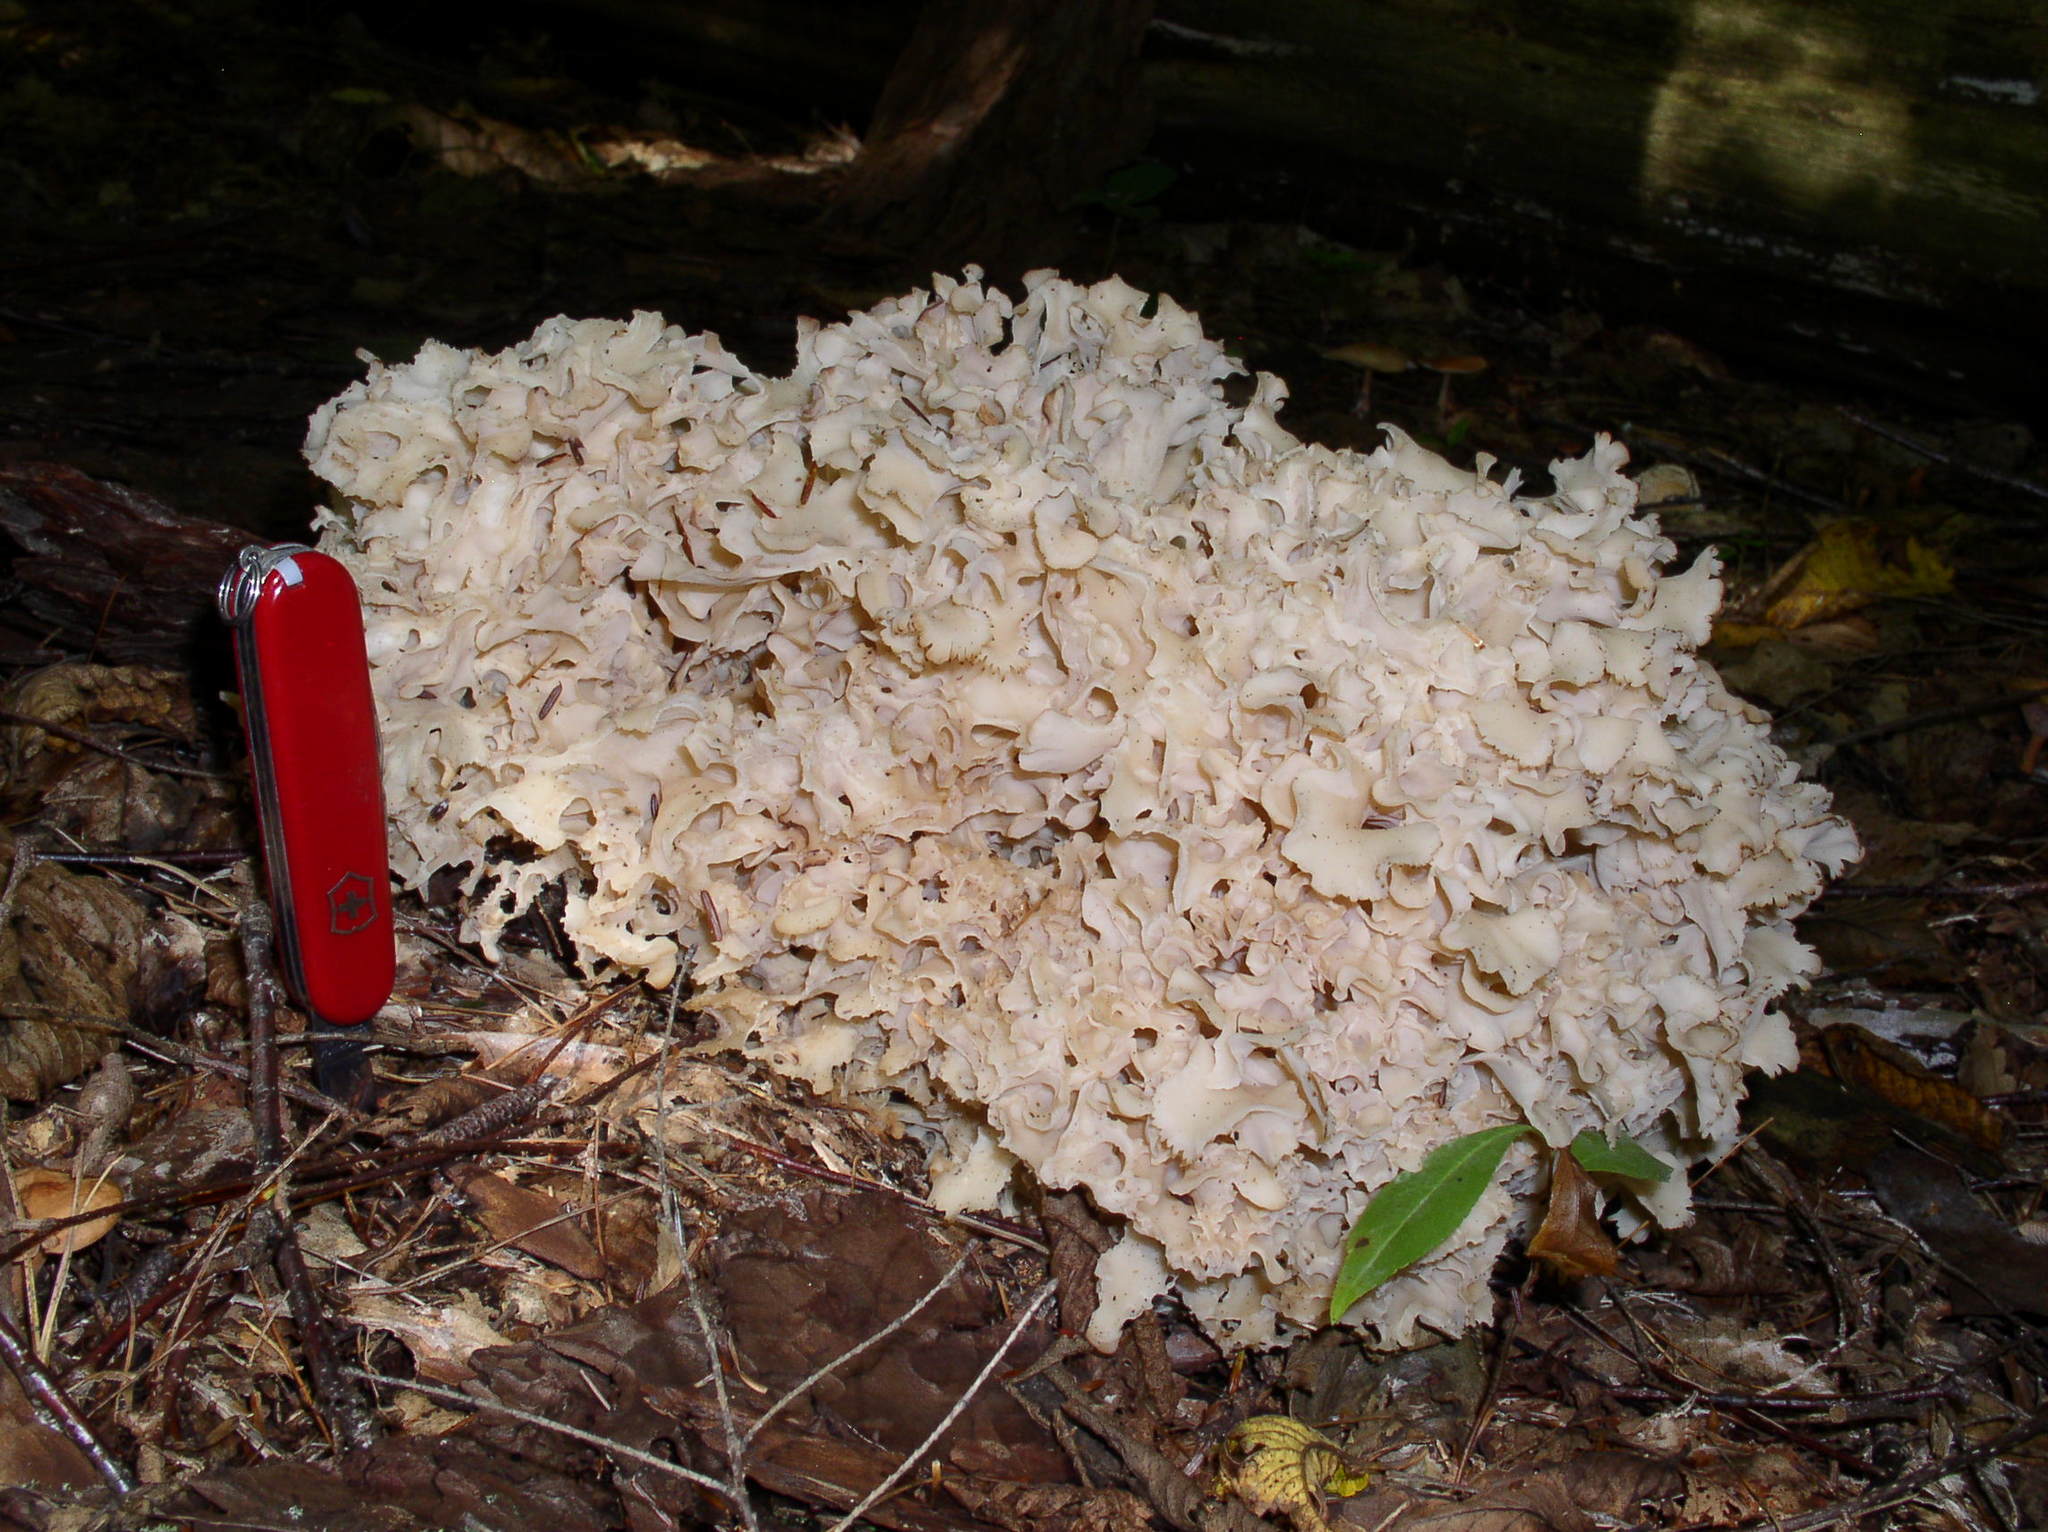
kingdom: Fungi
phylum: Basidiomycota
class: Agaricomycetes
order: Polyporales
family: Sparassidaceae
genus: Sparassis
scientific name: Sparassis americana
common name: American cauliflower mushroom
